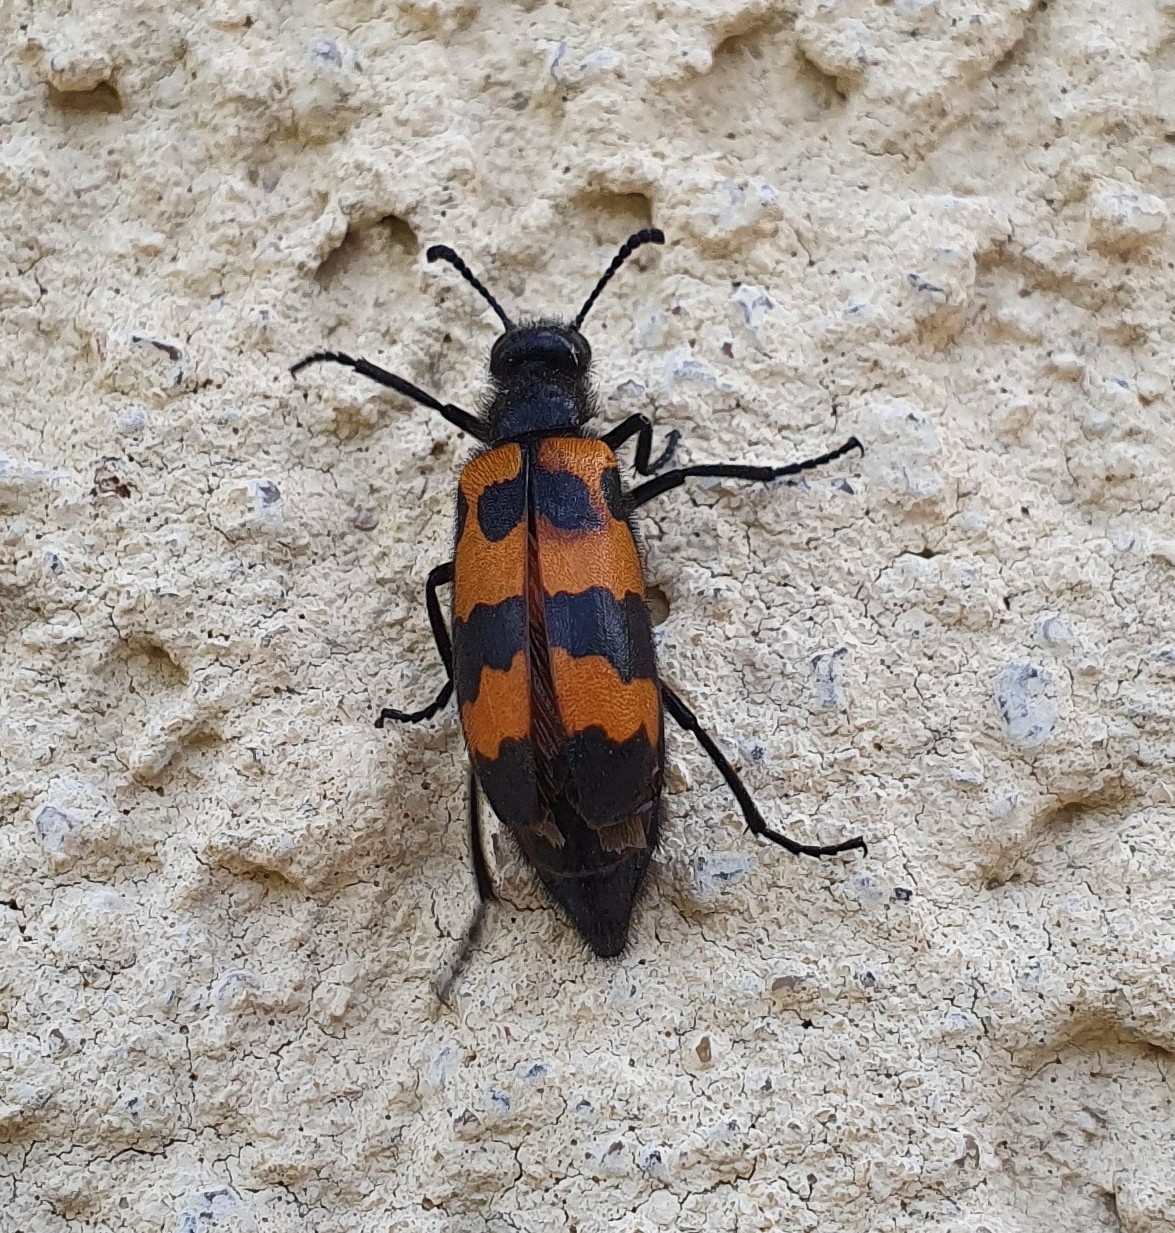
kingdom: Animalia
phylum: Arthropoda
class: Insecta
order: Coleoptera
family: Meloidae
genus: Mylabris
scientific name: Mylabris variabilis
